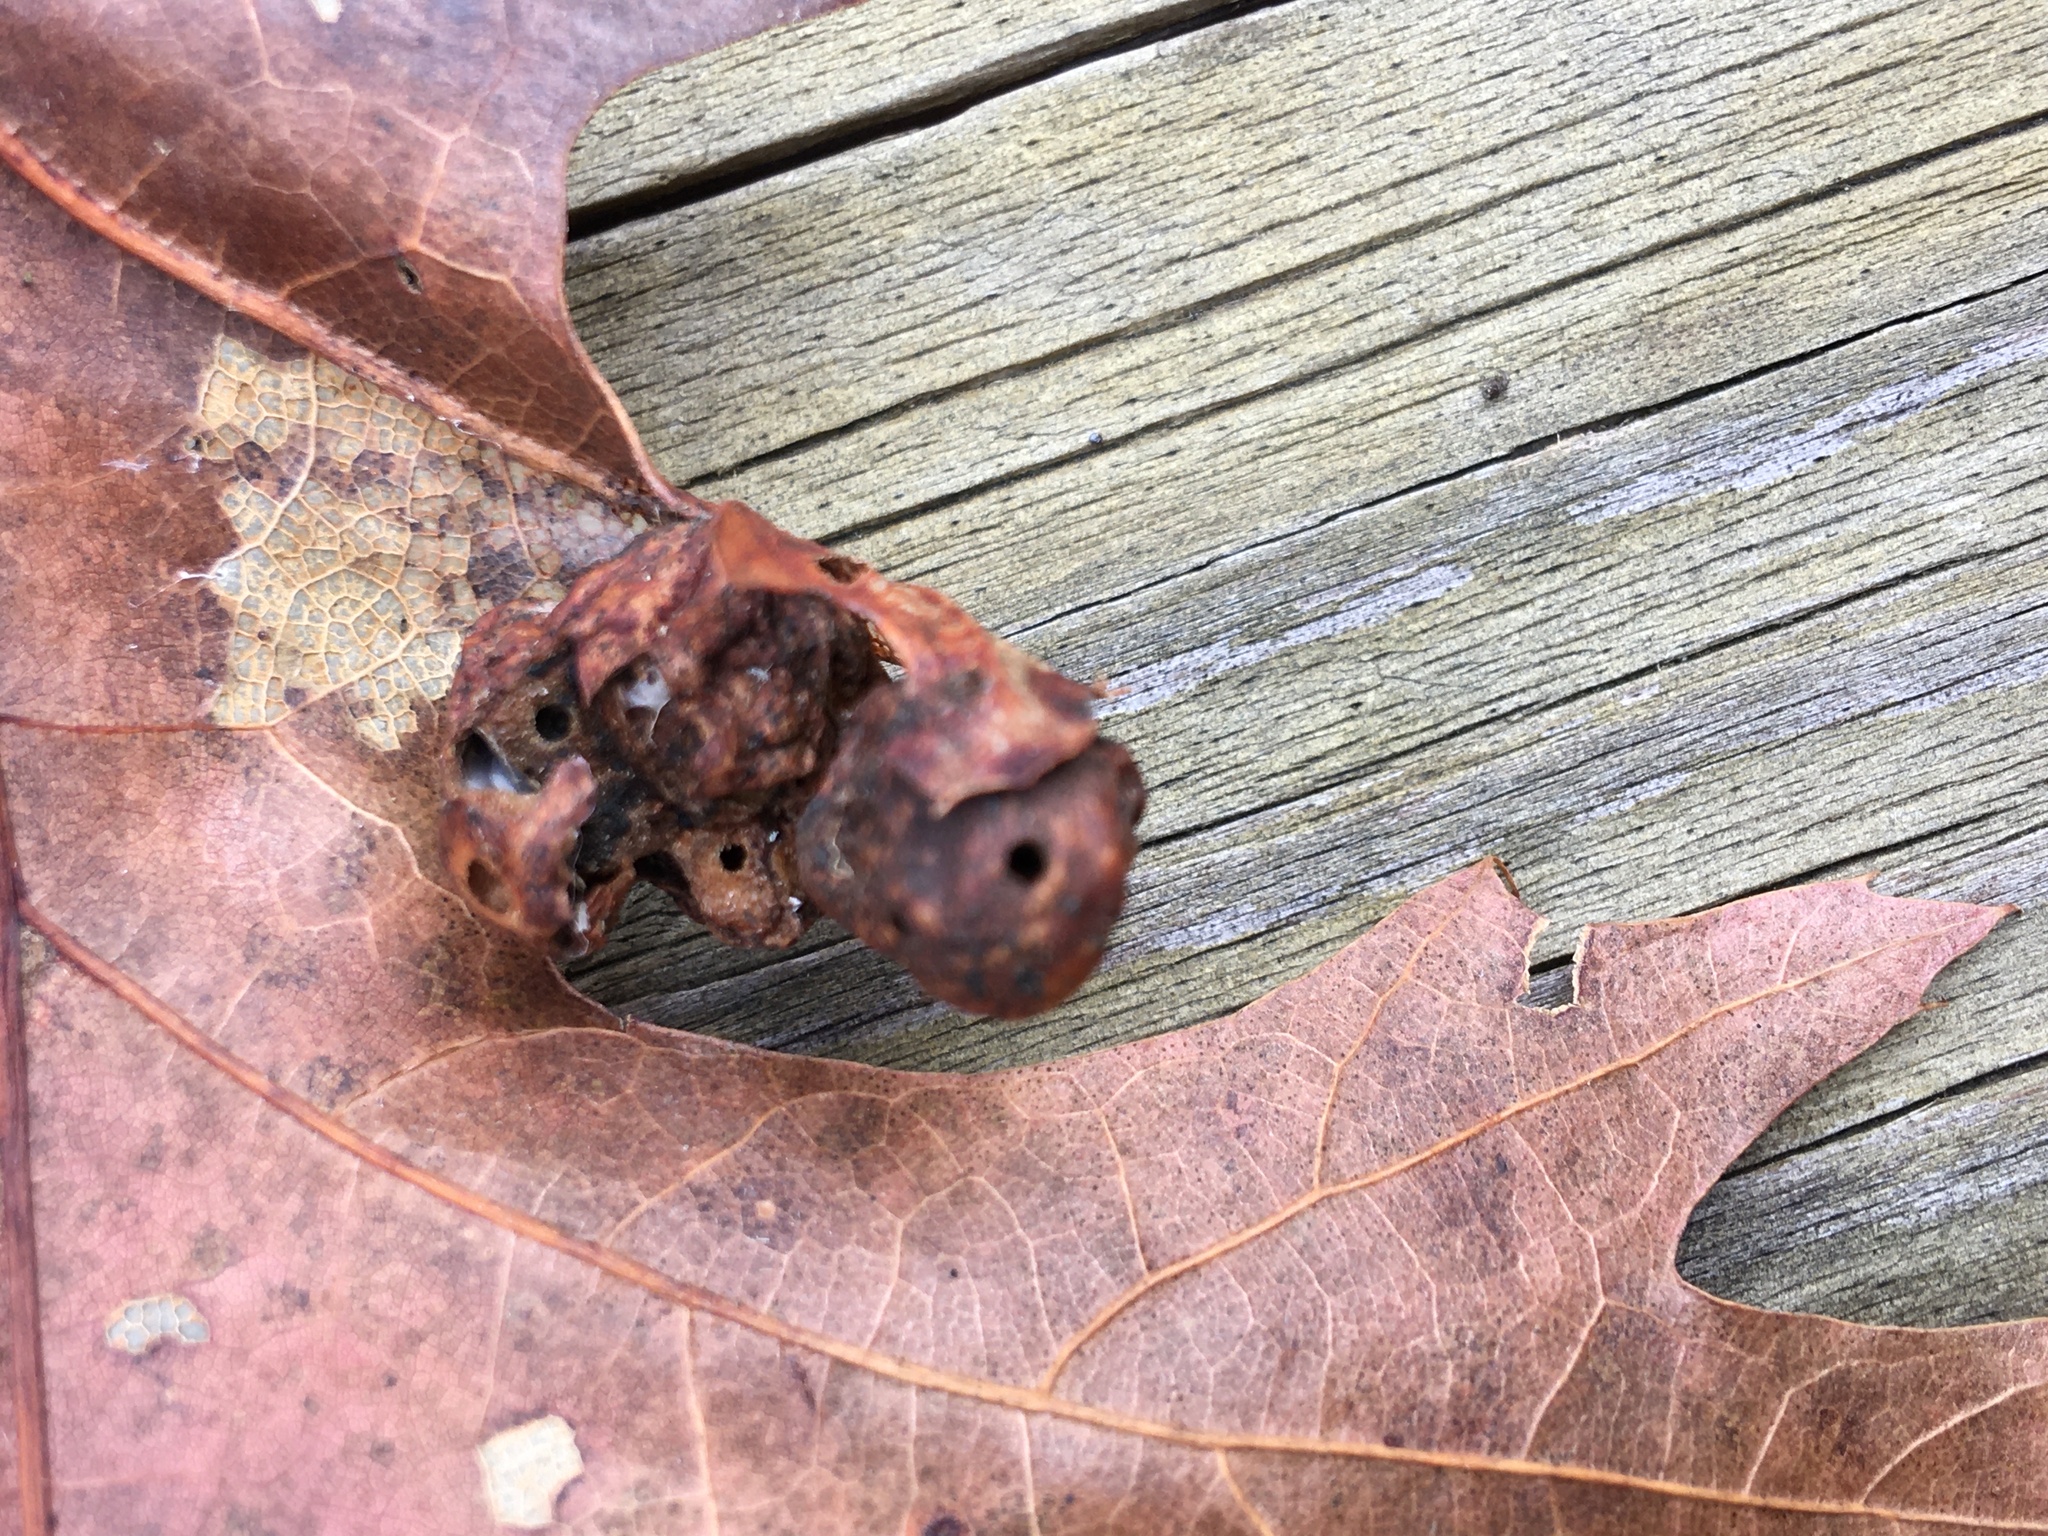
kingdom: Animalia
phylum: Arthropoda
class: Insecta
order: Hymenoptera
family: Cynipidae
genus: Callirhytis
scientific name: Callirhytis
